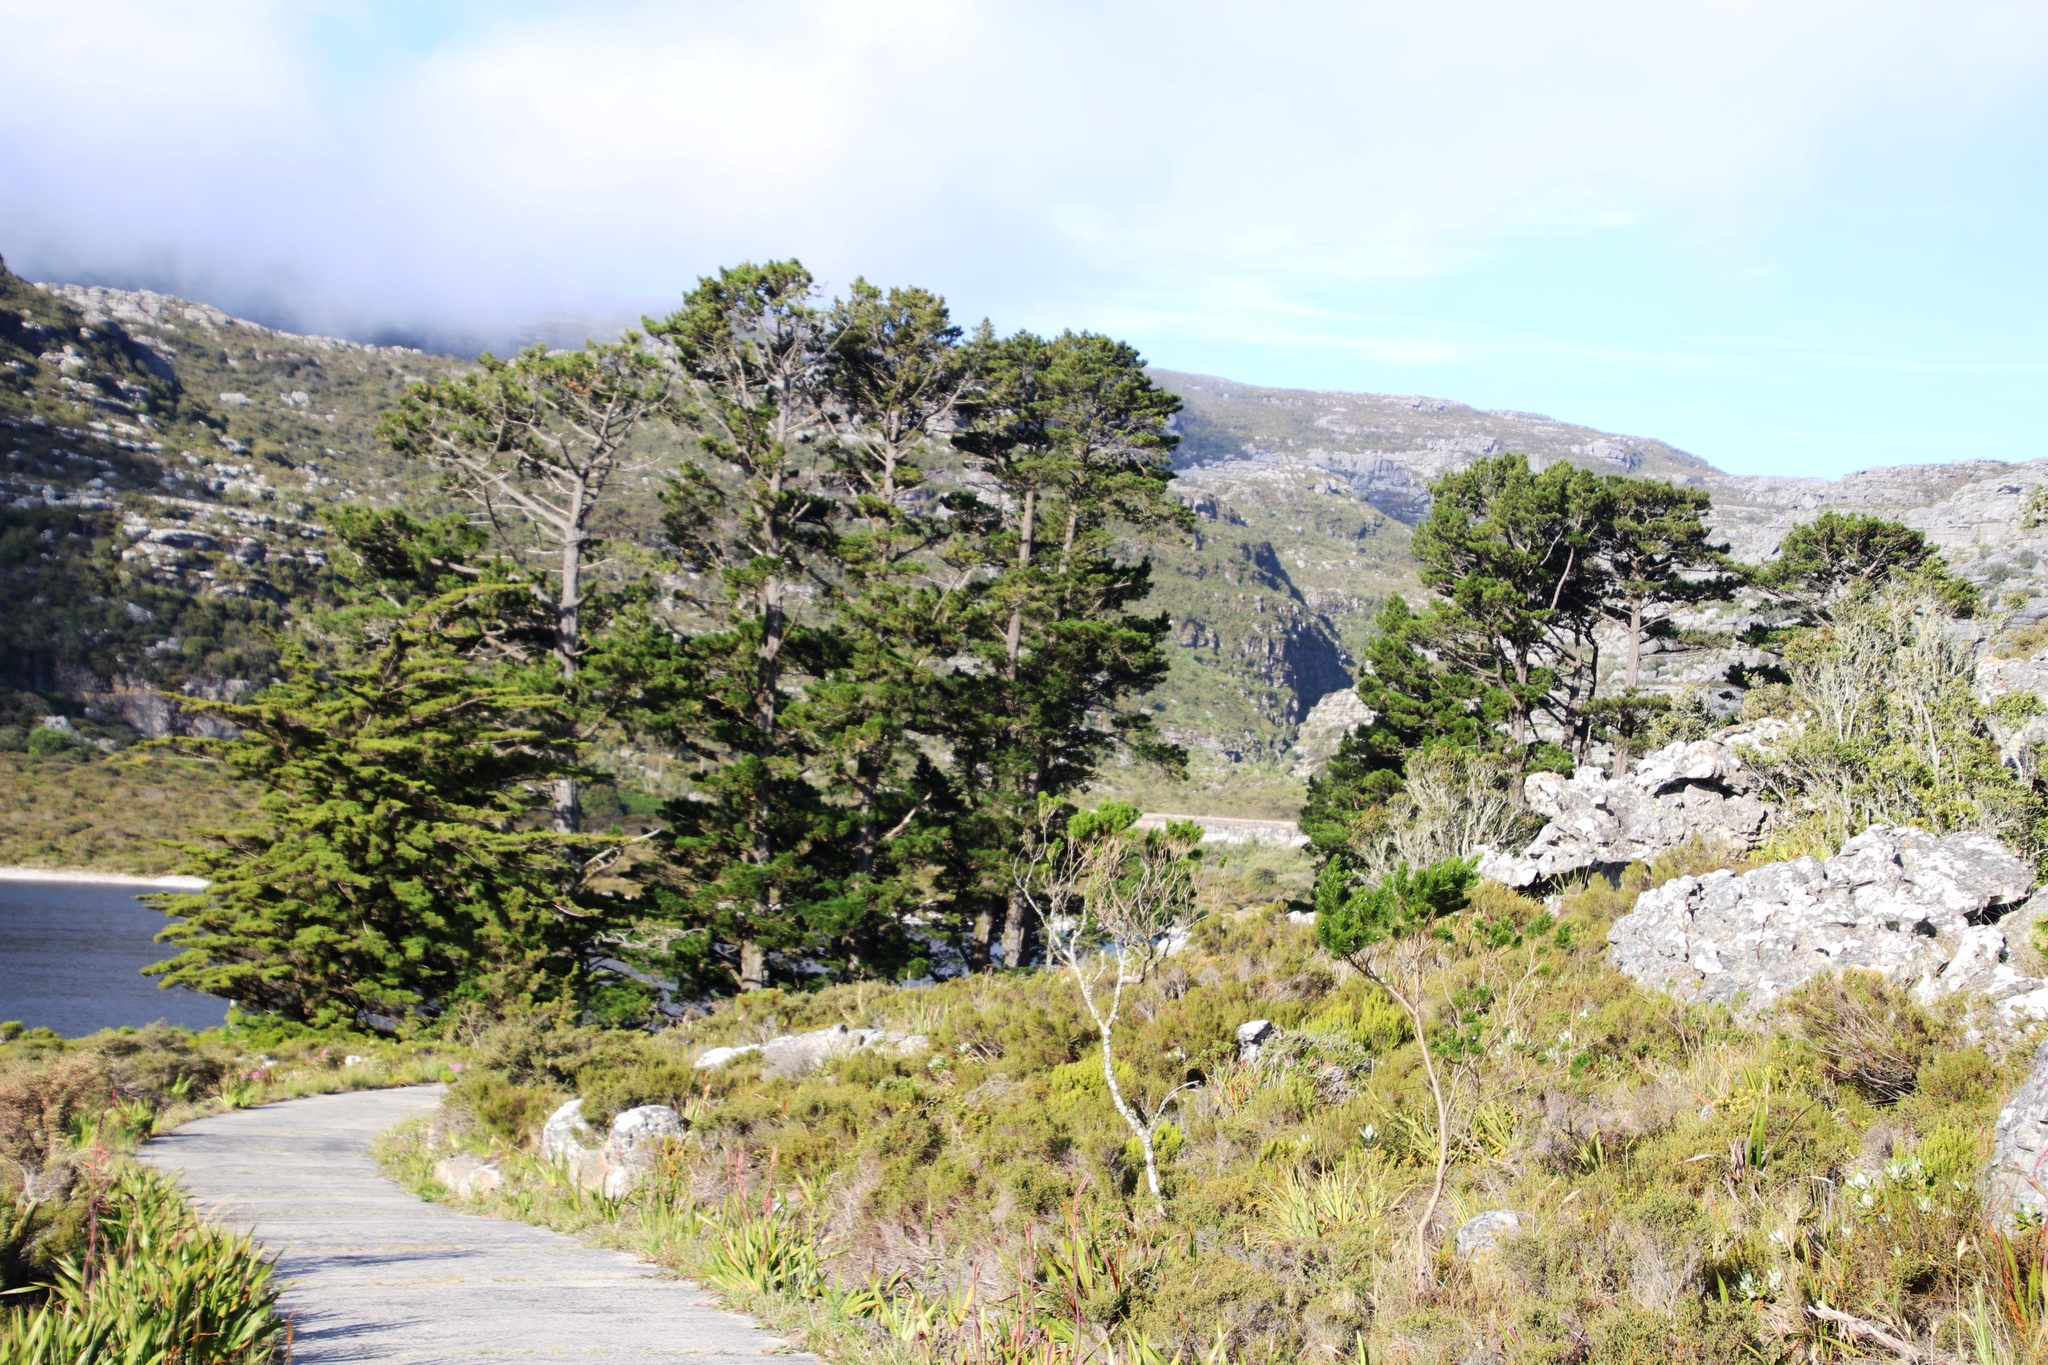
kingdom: Plantae
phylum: Tracheophyta
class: Pinopsida
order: Pinales
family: Pinaceae
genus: Pinus
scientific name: Pinus radiata
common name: Monterey pine
